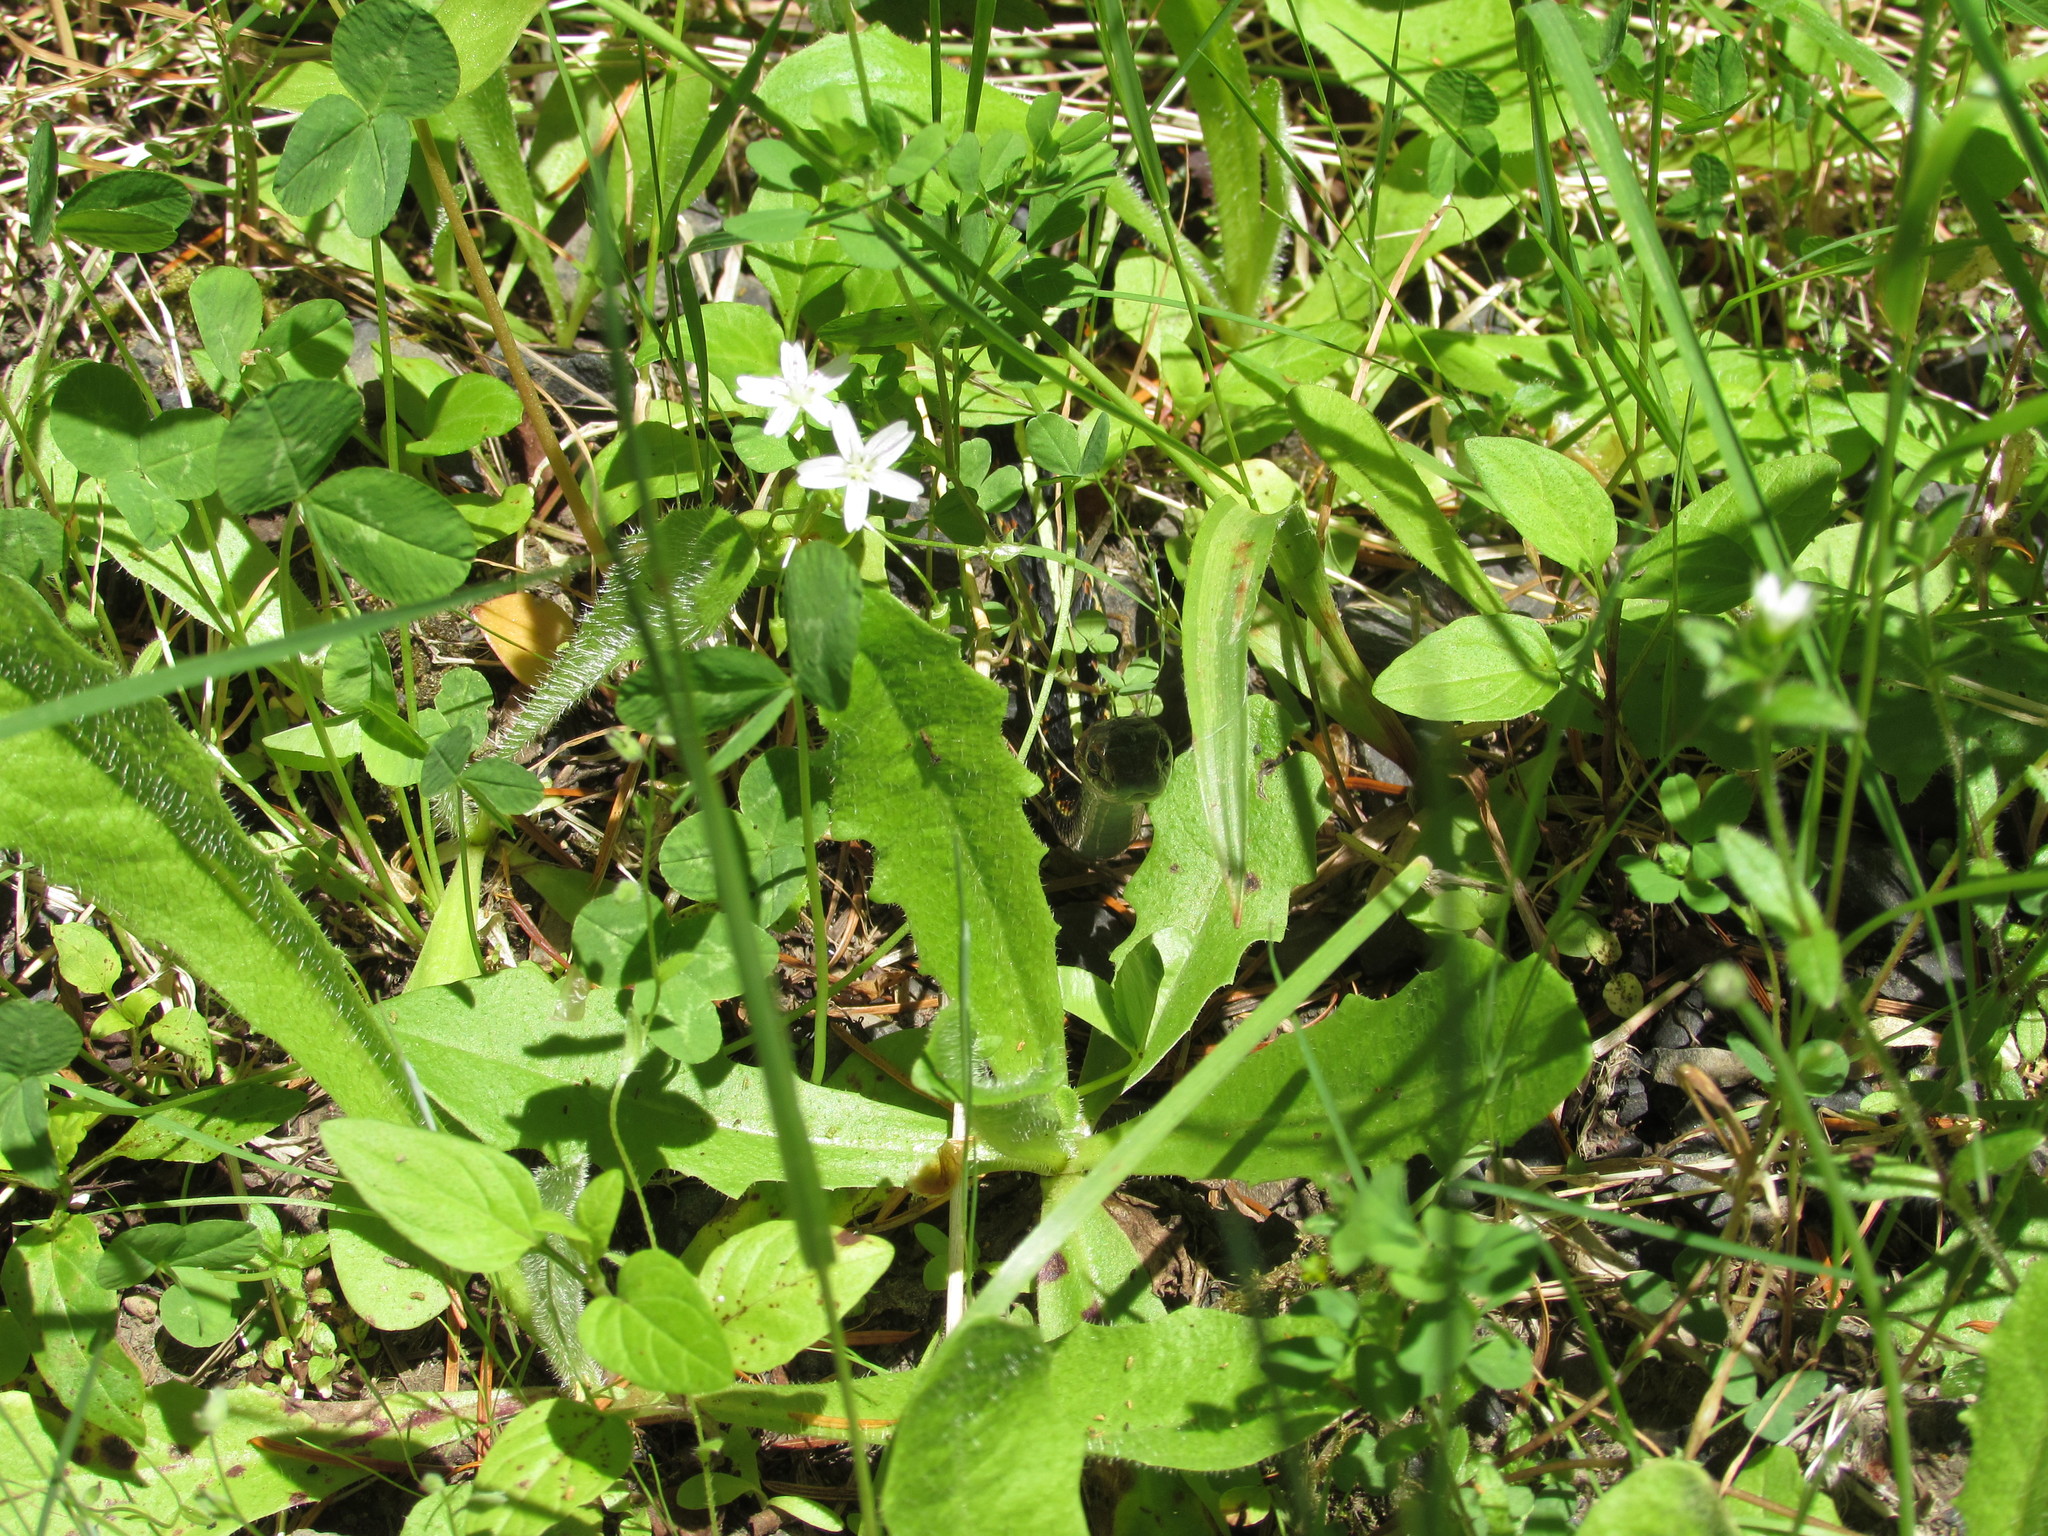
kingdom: Animalia
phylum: Chordata
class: Squamata
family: Colubridae
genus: Thamnophis
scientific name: Thamnophis sirtalis
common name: Common garter snake
